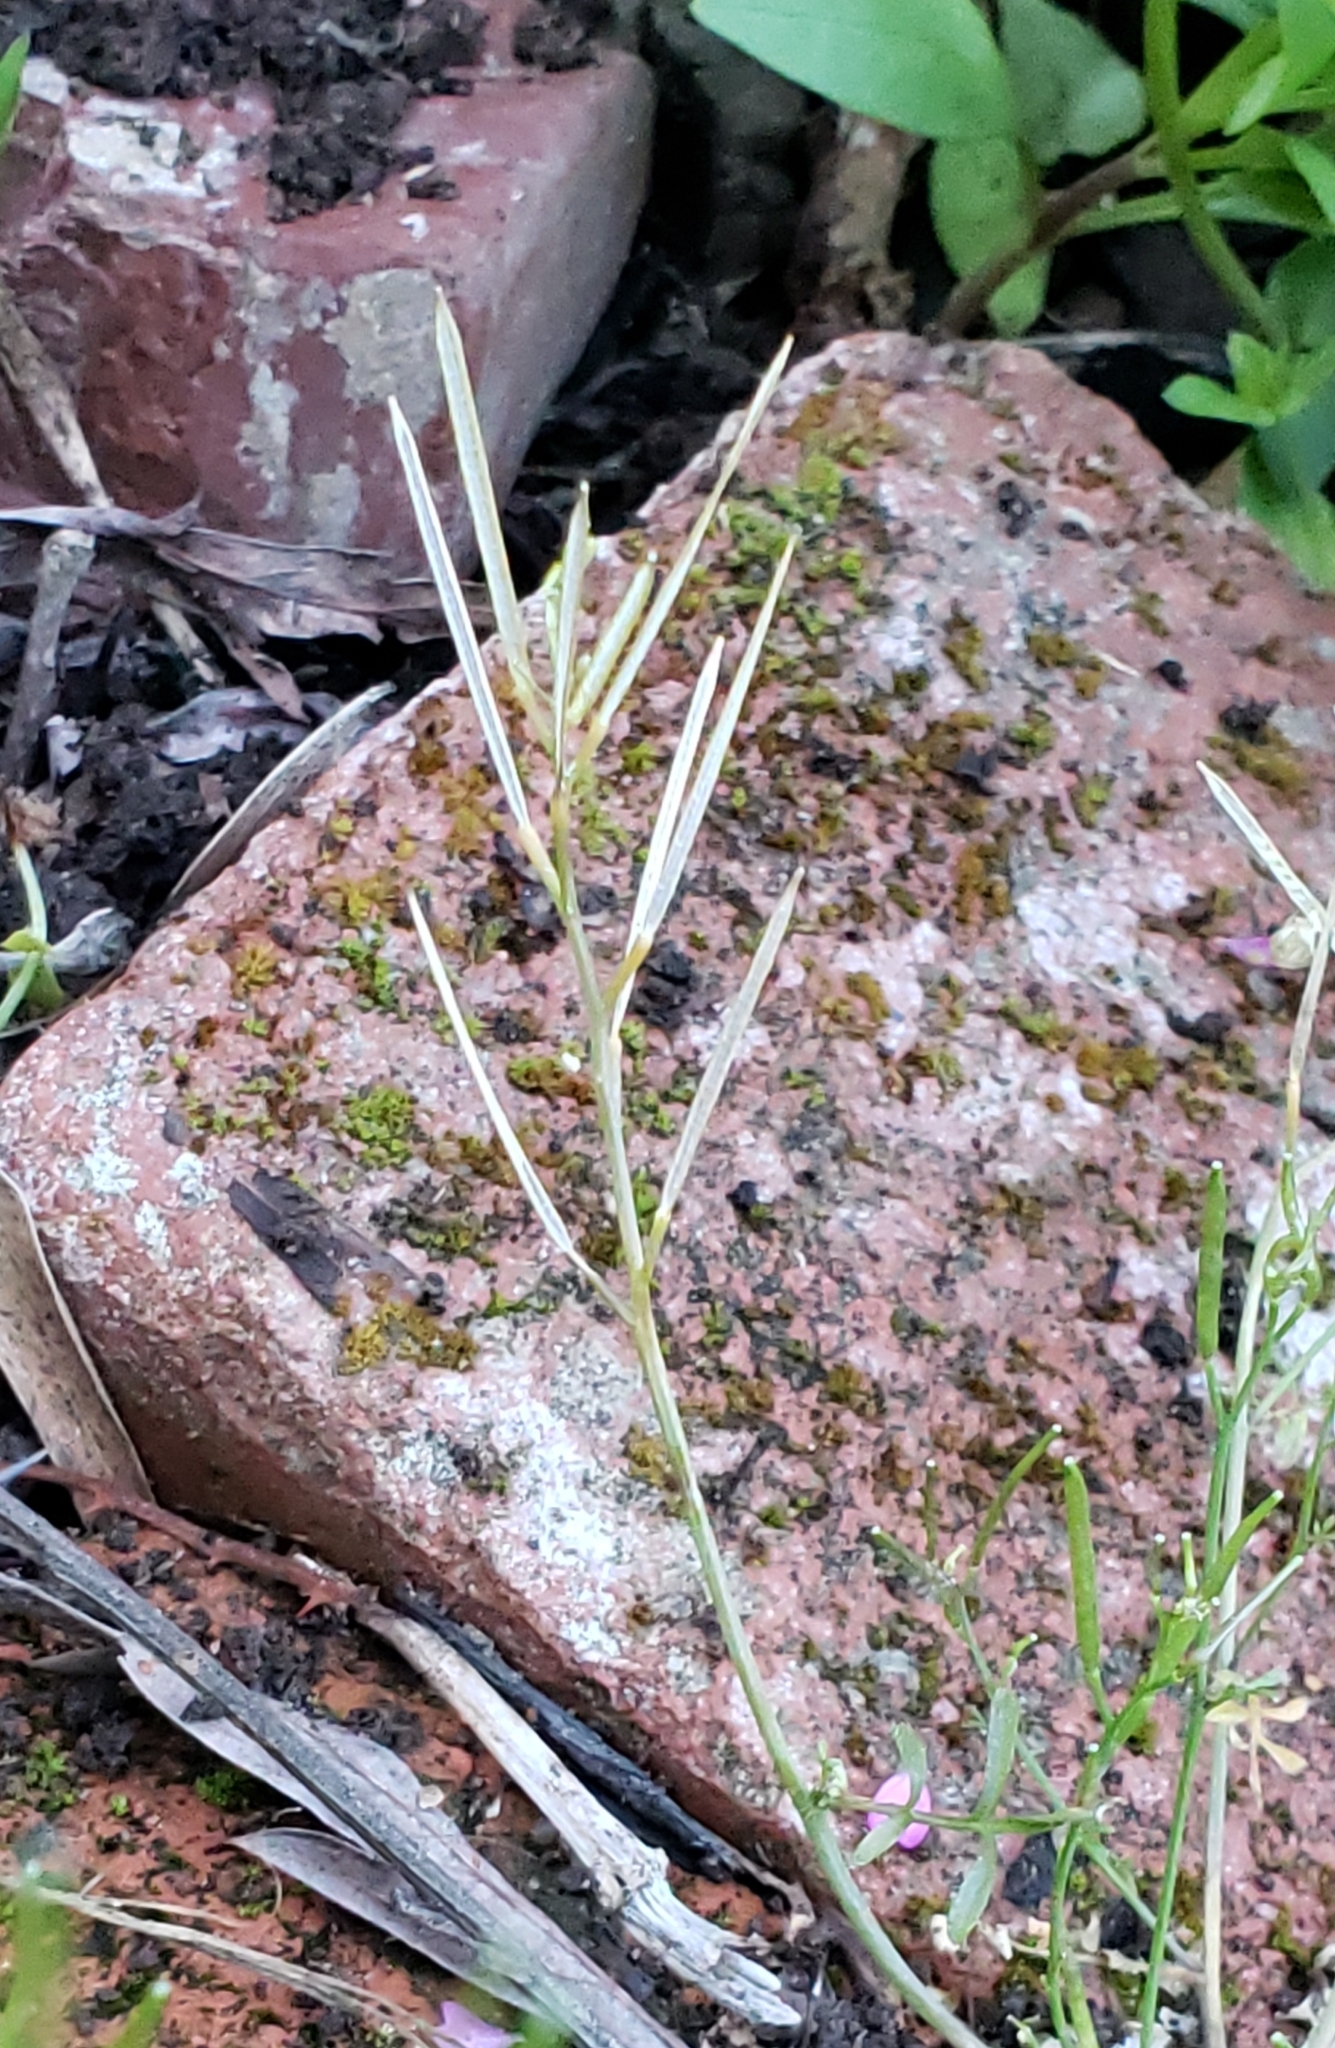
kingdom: Plantae
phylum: Tracheophyta
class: Magnoliopsida
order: Brassicales
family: Brassicaceae
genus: Cardamine
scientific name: Cardamine hirsuta
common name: Hairy bittercress
